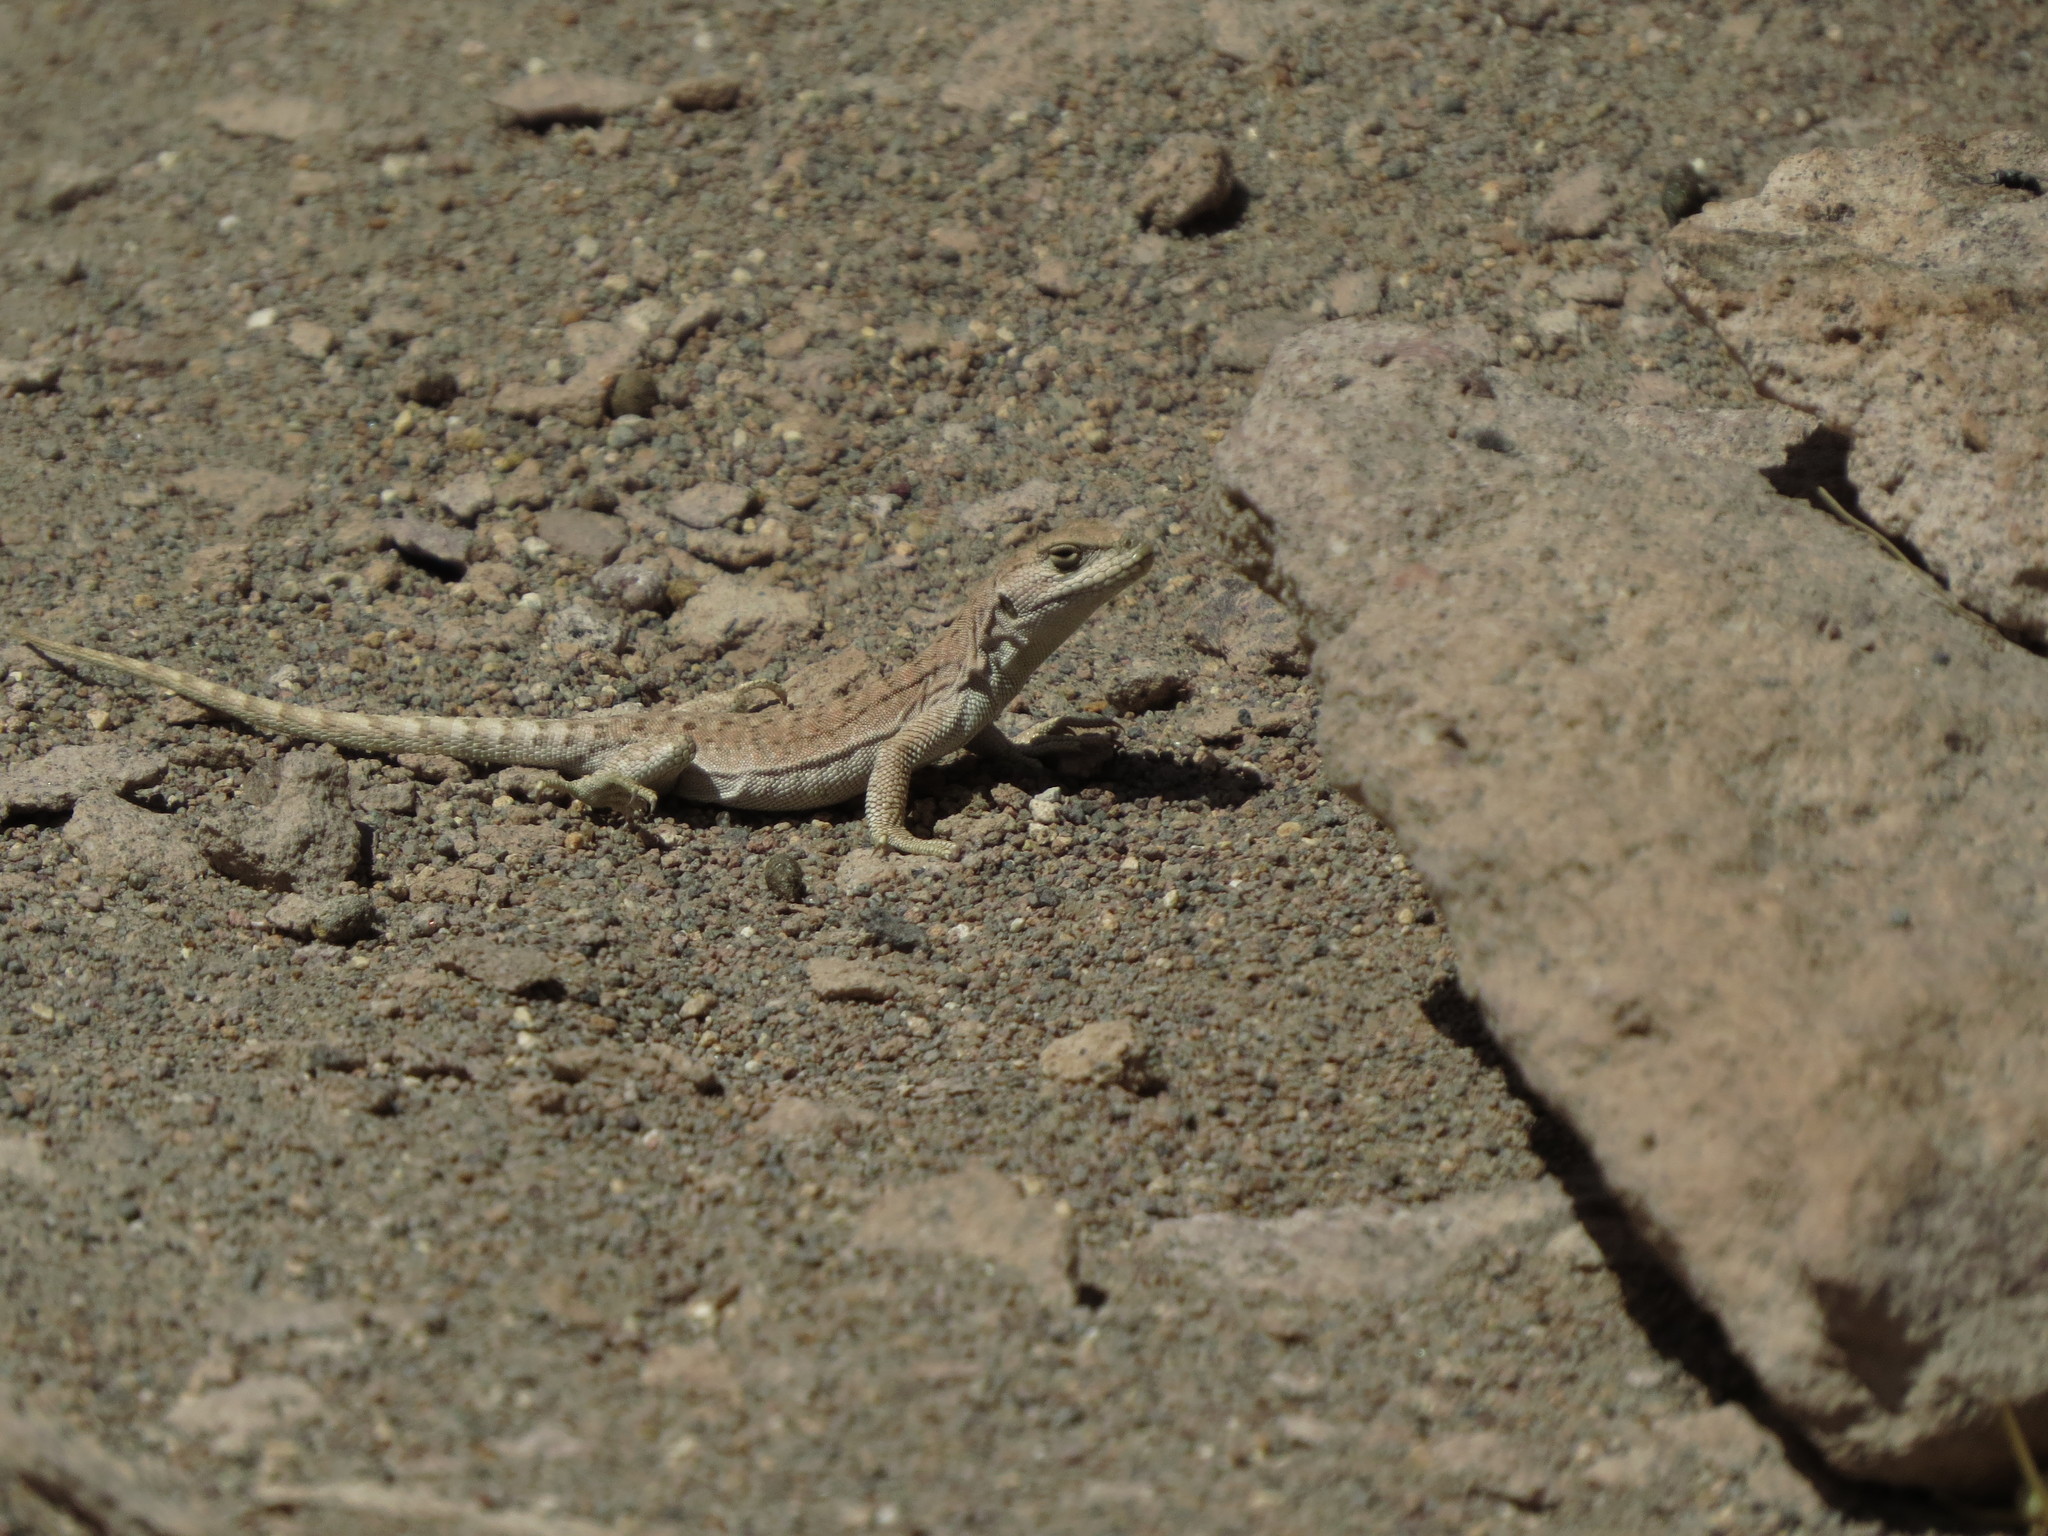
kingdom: Animalia
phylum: Chordata
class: Squamata
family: Liolaemidae
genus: Liolaemus
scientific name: Liolaemus rosenmanni
